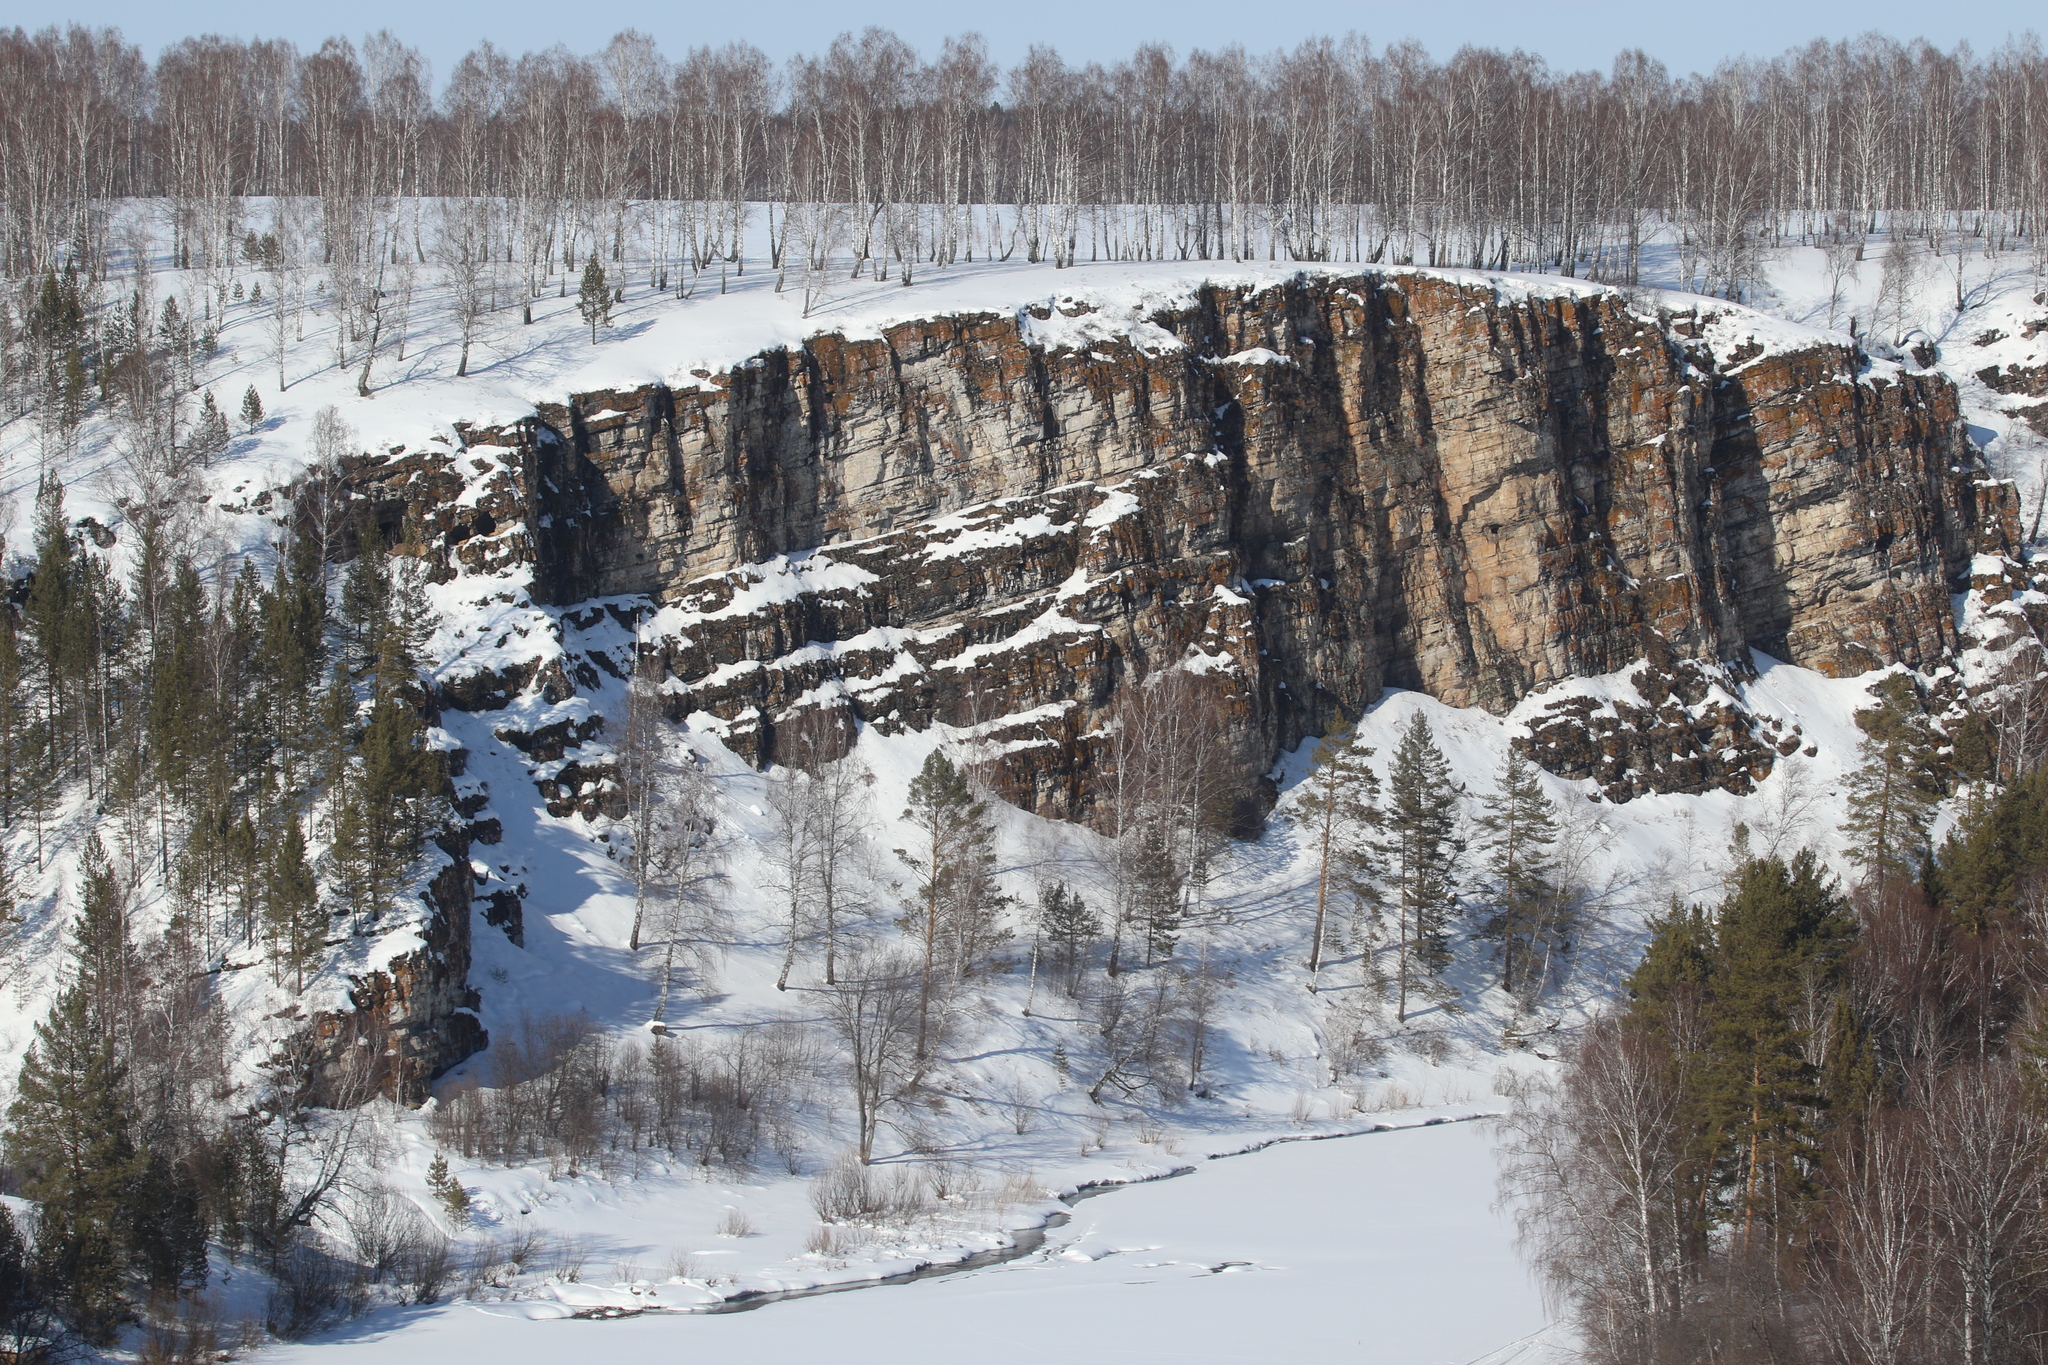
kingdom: Plantae
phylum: Tracheophyta
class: Magnoliopsida
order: Fagales
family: Betulaceae
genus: Betula
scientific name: Betula pendula
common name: Silver birch
